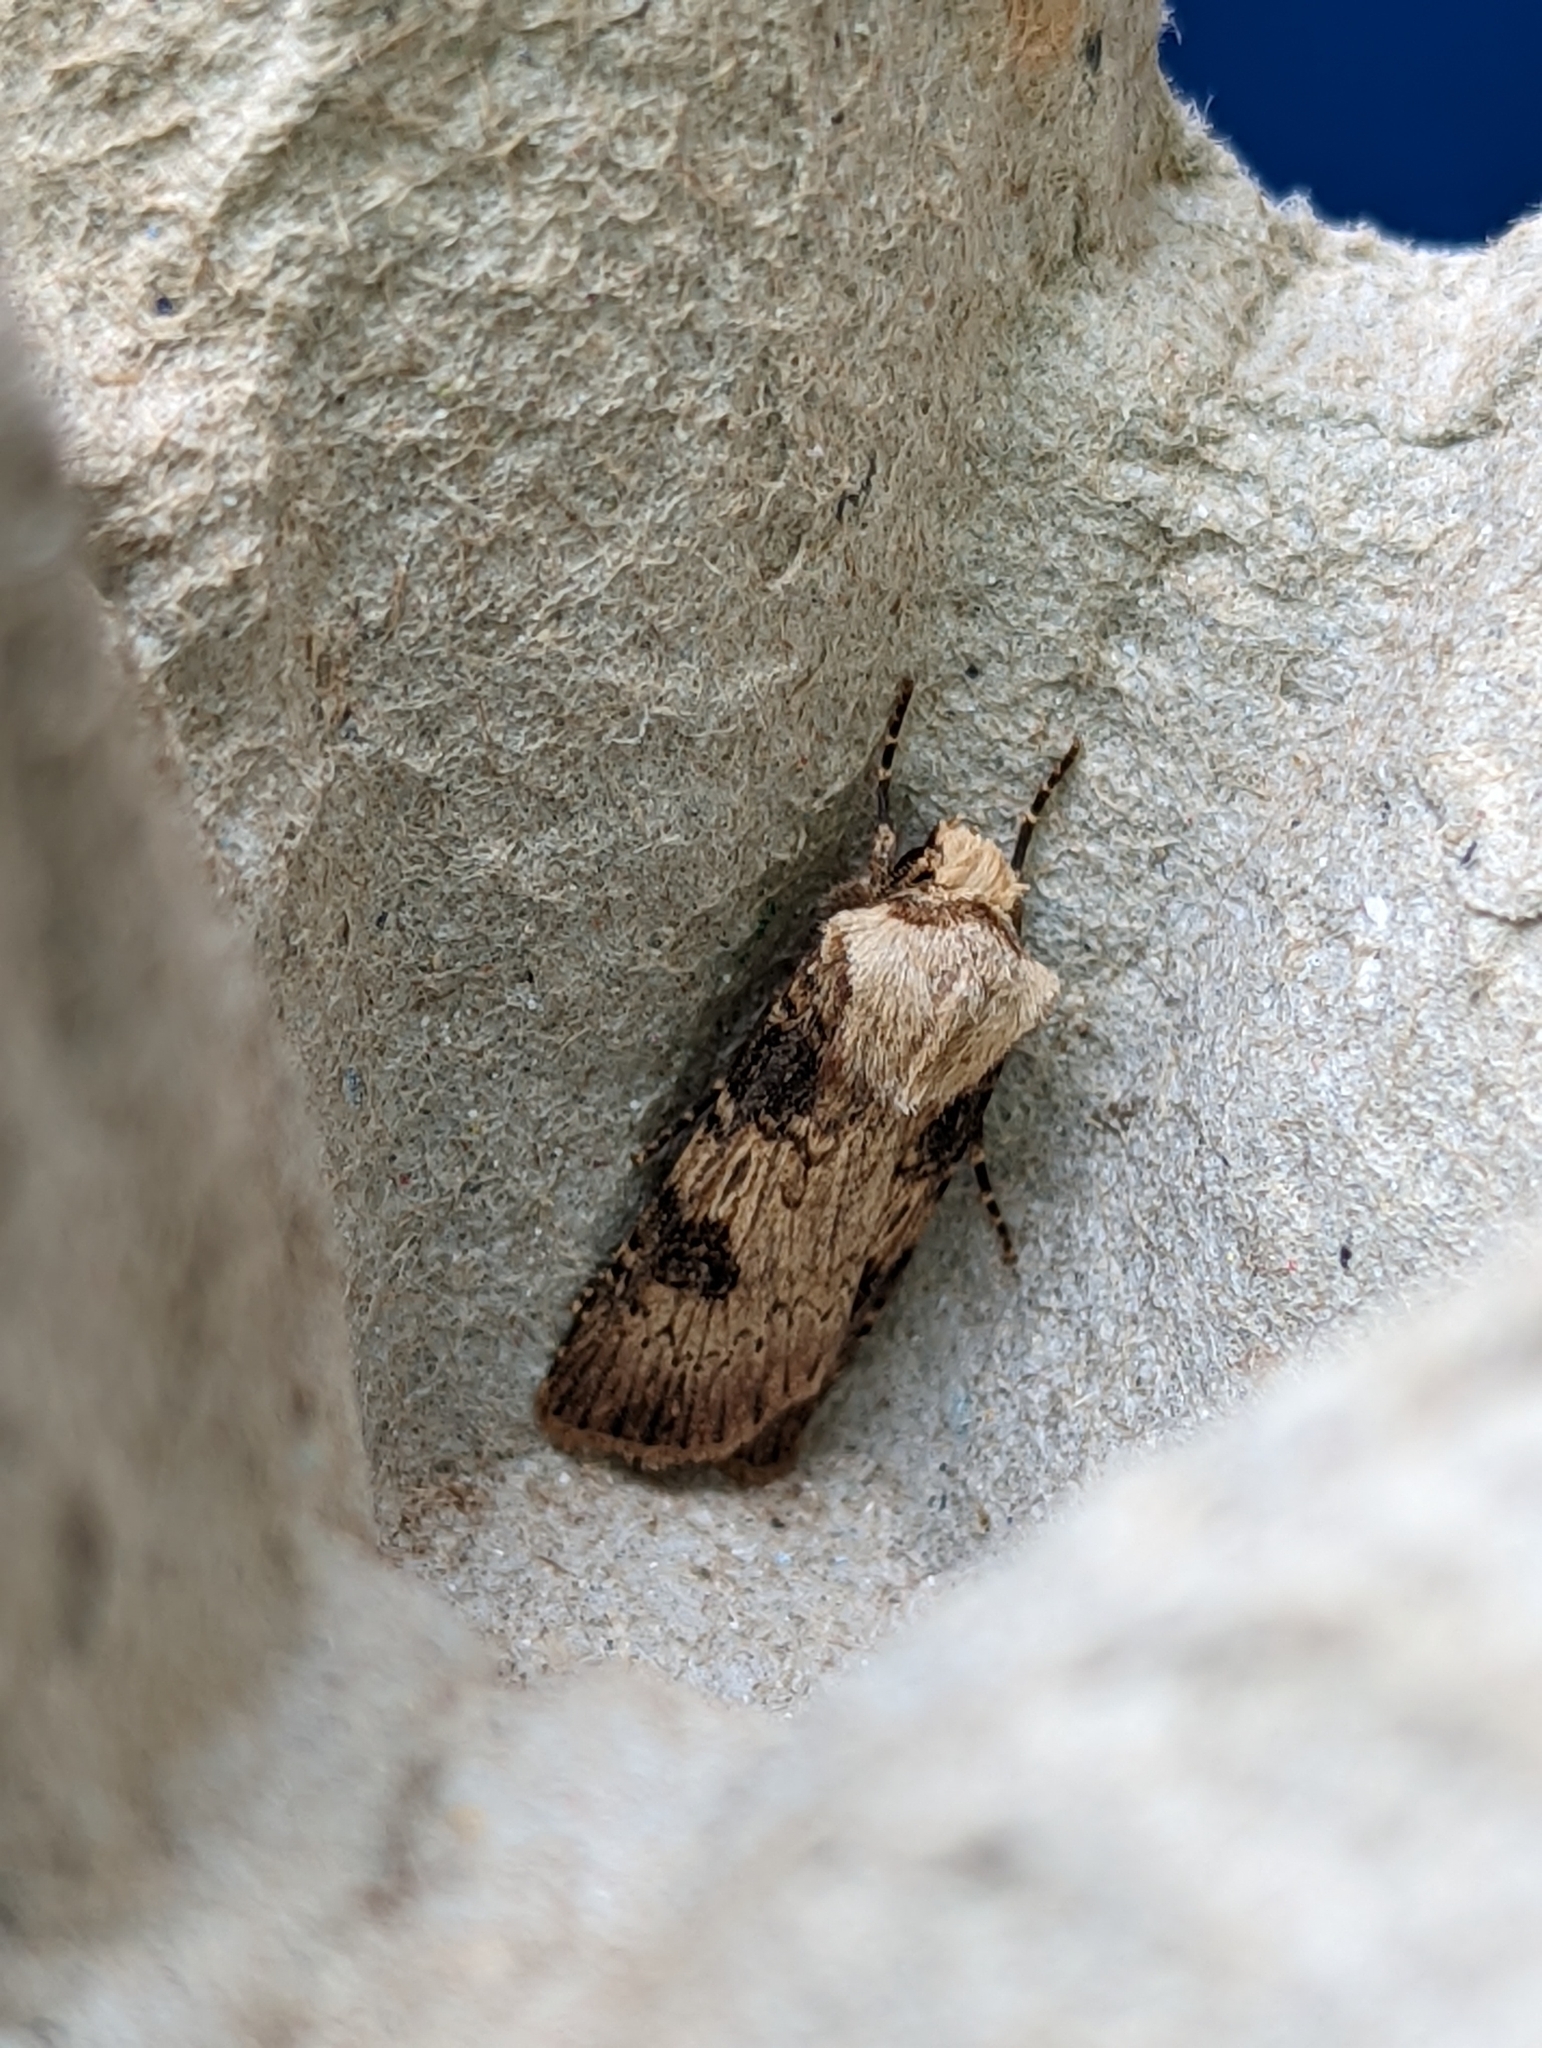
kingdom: Animalia
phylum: Arthropoda
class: Insecta
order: Lepidoptera
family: Noctuidae
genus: Agrotis
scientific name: Agrotis puta
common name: Shuttle-shaped dart
